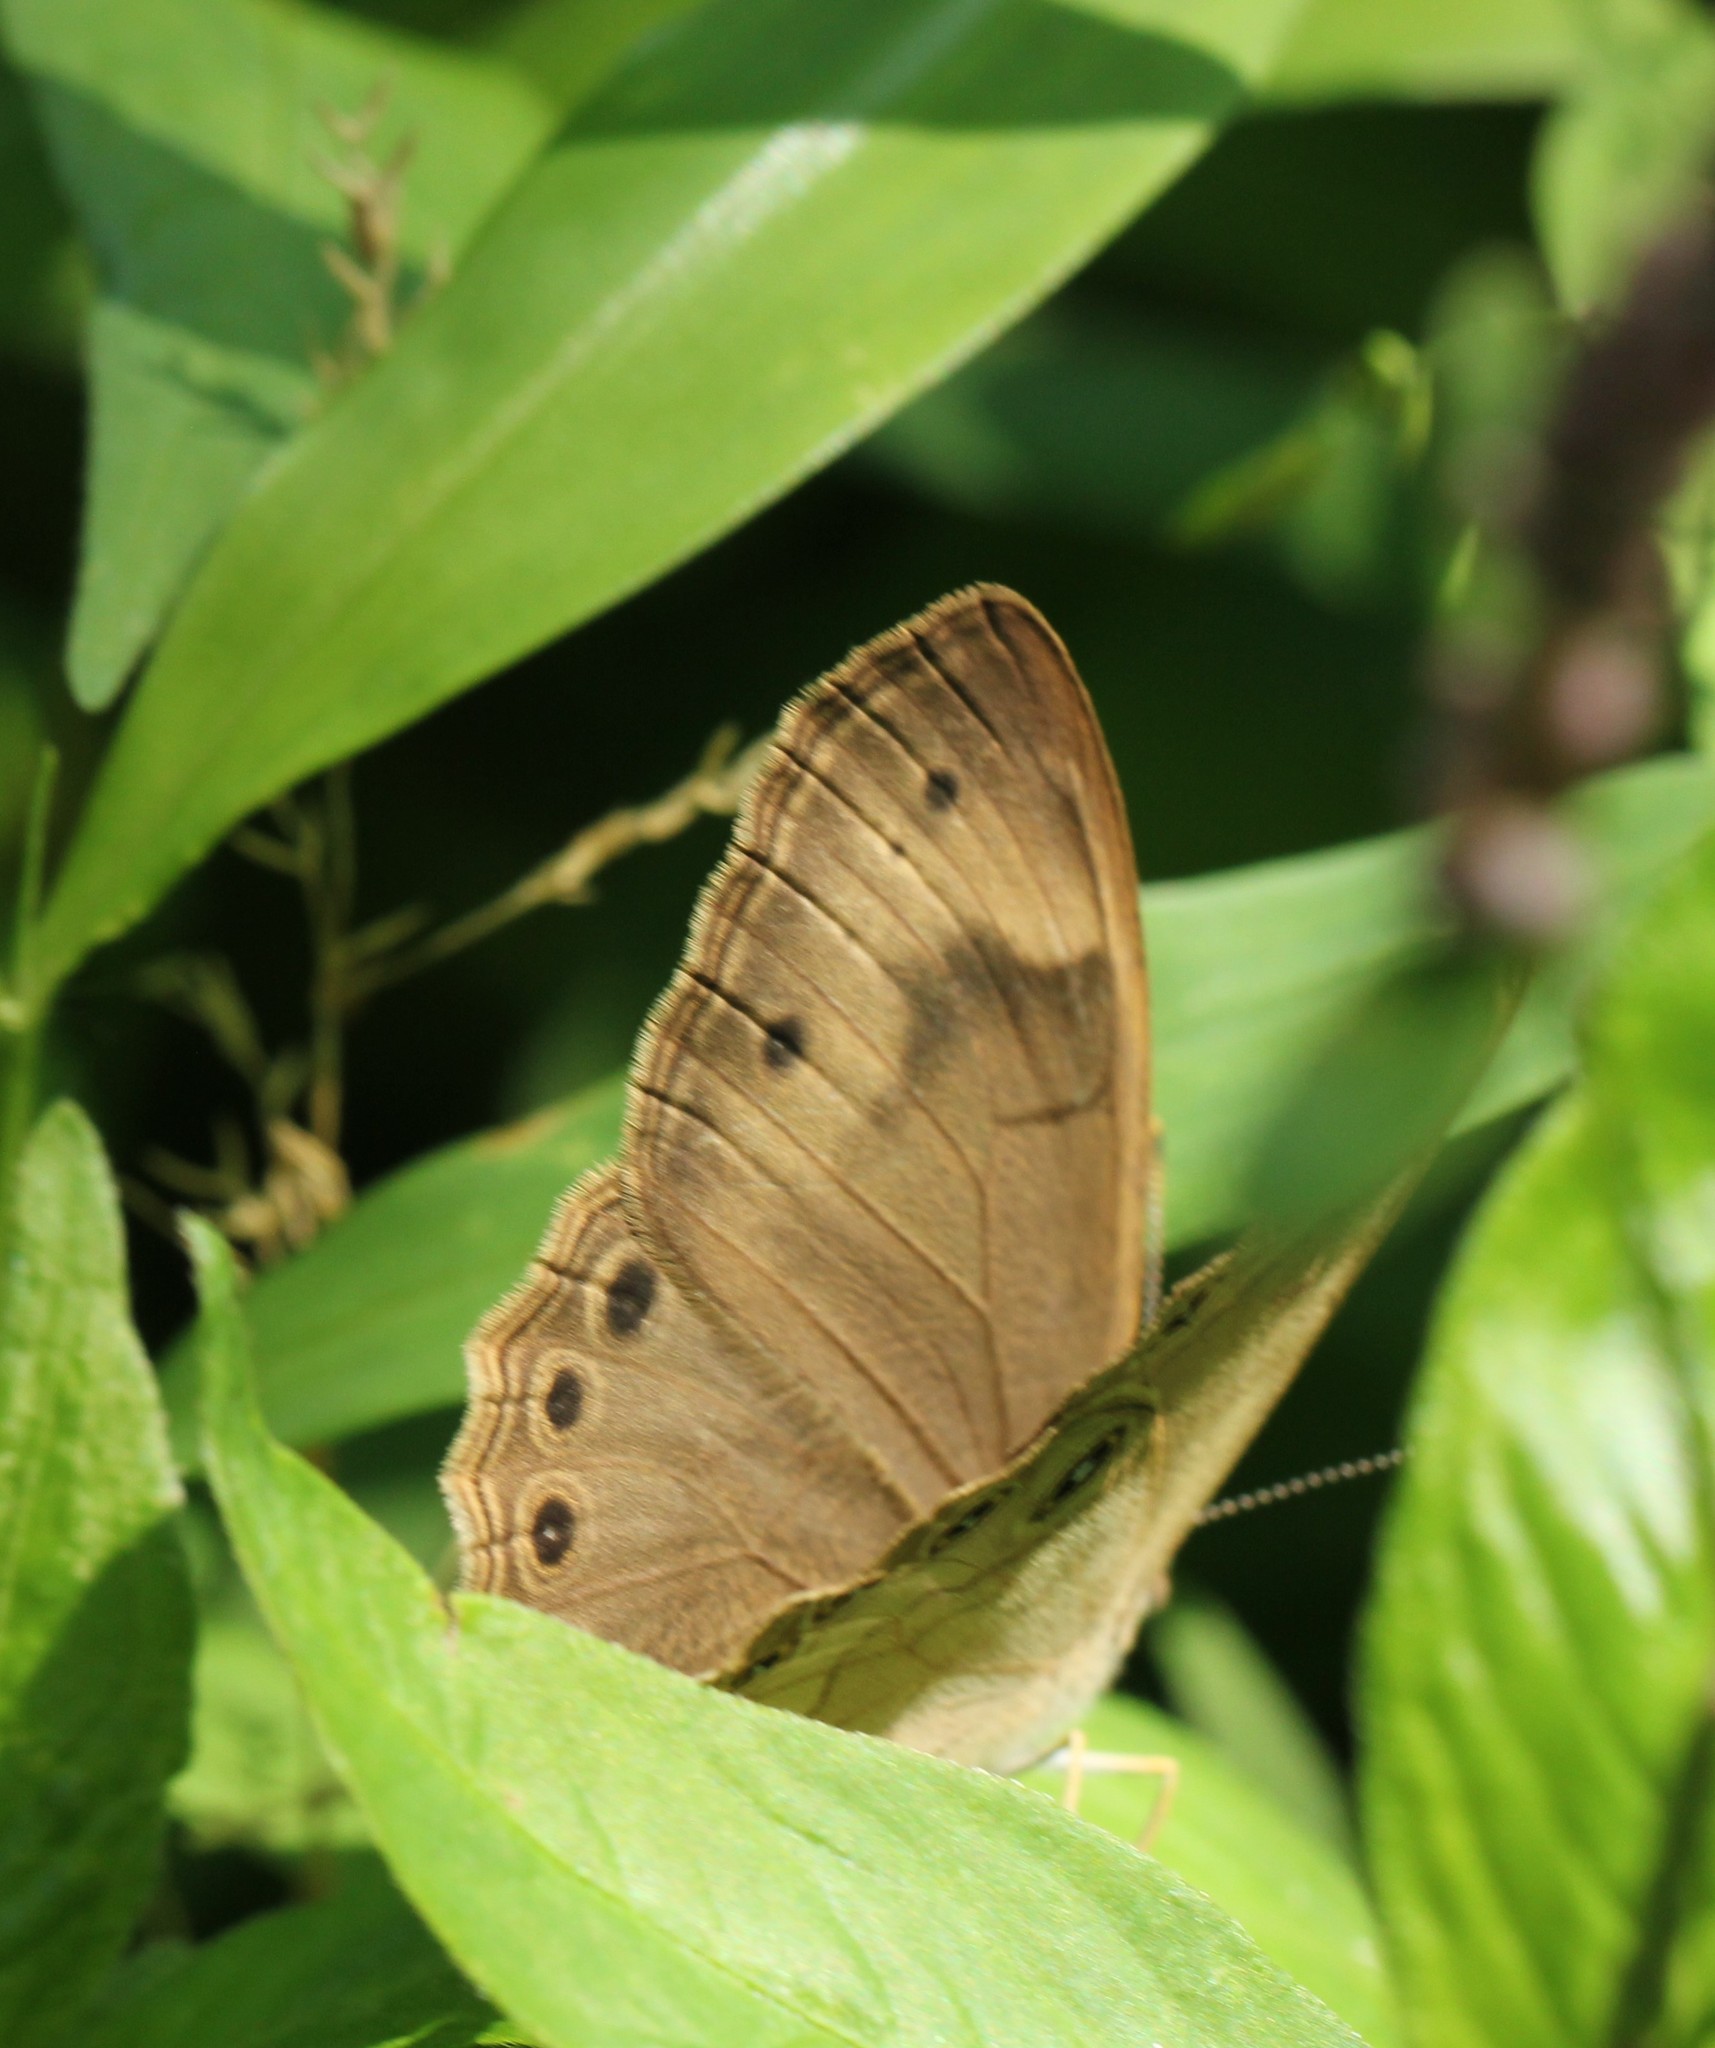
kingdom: Animalia
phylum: Arthropoda
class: Insecta
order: Lepidoptera
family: Nymphalidae
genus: Lethe
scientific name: Lethe eurydice
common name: Eyed brown
